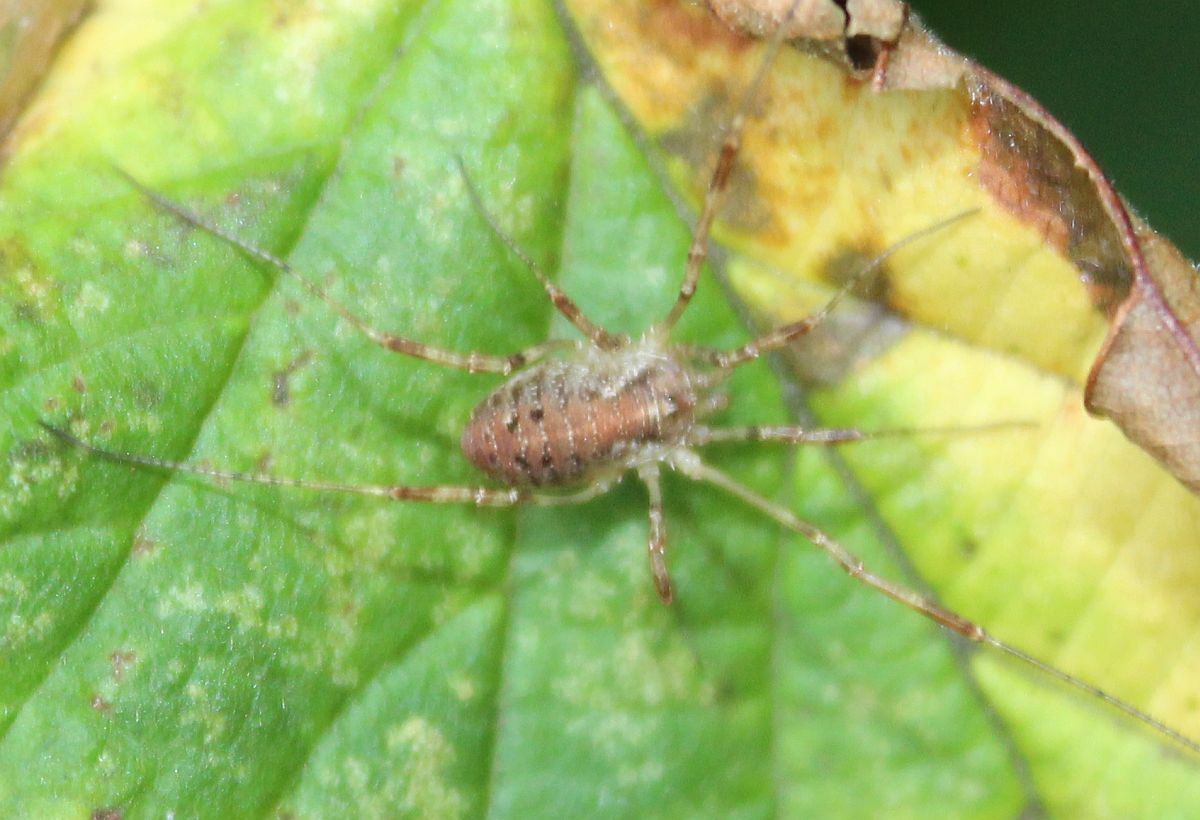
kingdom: Animalia
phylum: Arthropoda
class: Arachnida
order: Opiliones
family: Phalangiidae
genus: Paroligolophus
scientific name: Paroligolophus agrestis
